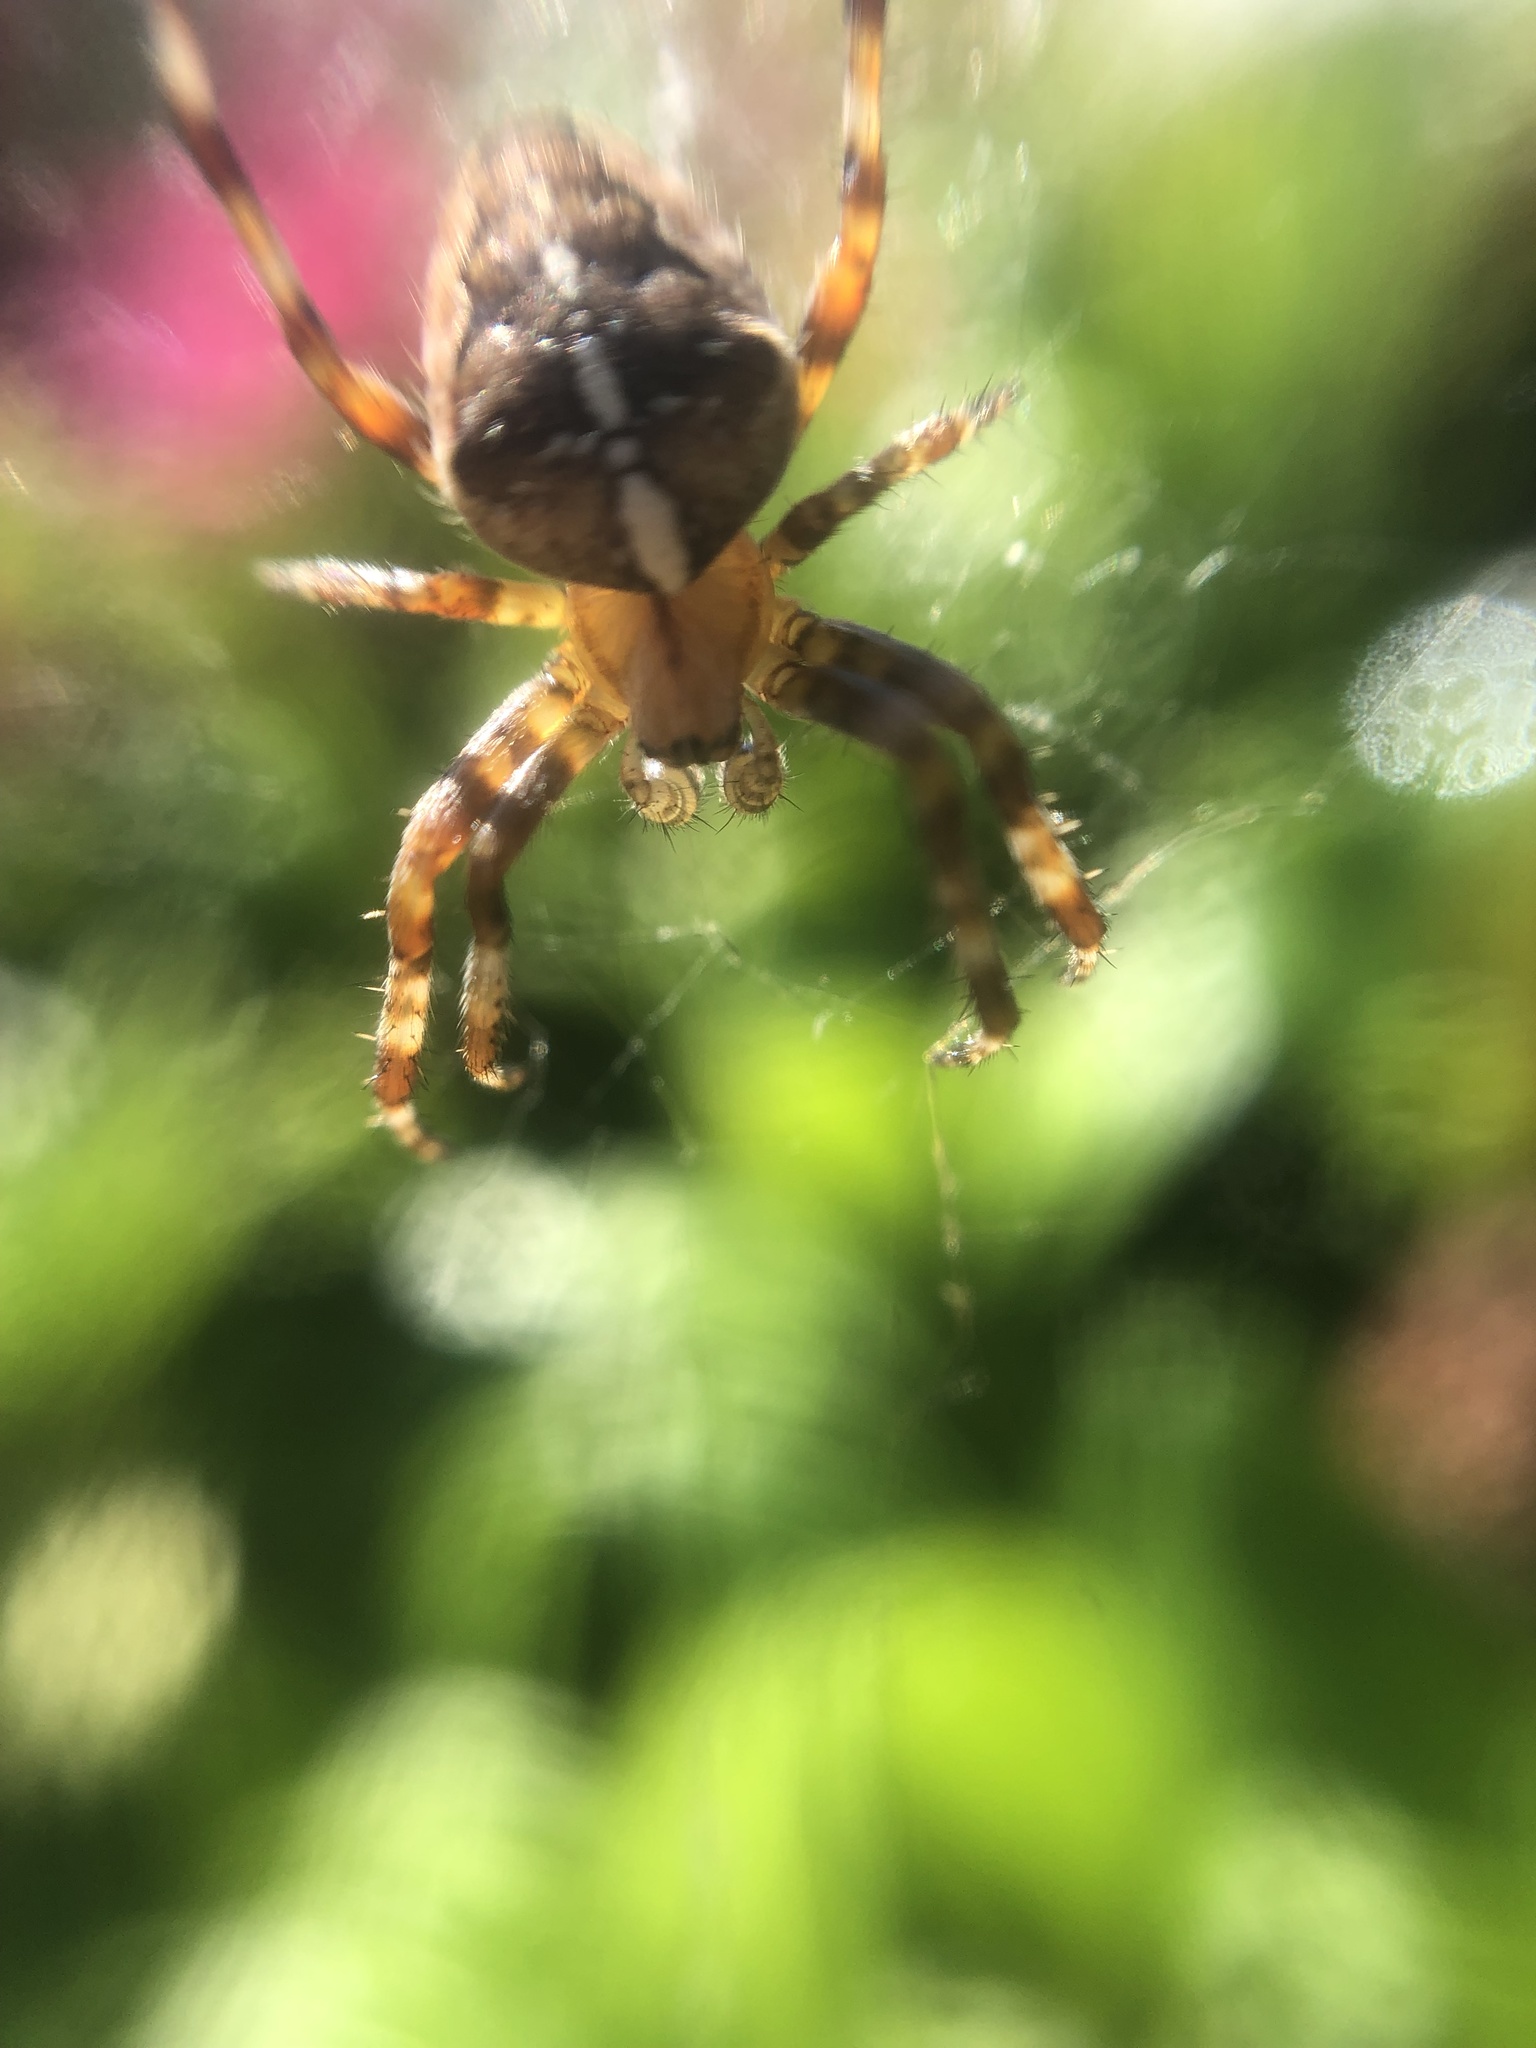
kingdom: Animalia
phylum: Arthropoda
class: Arachnida
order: Araneae
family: Araneidae
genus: Araneus
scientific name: Araneus diadematus
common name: Cross orbweaver
